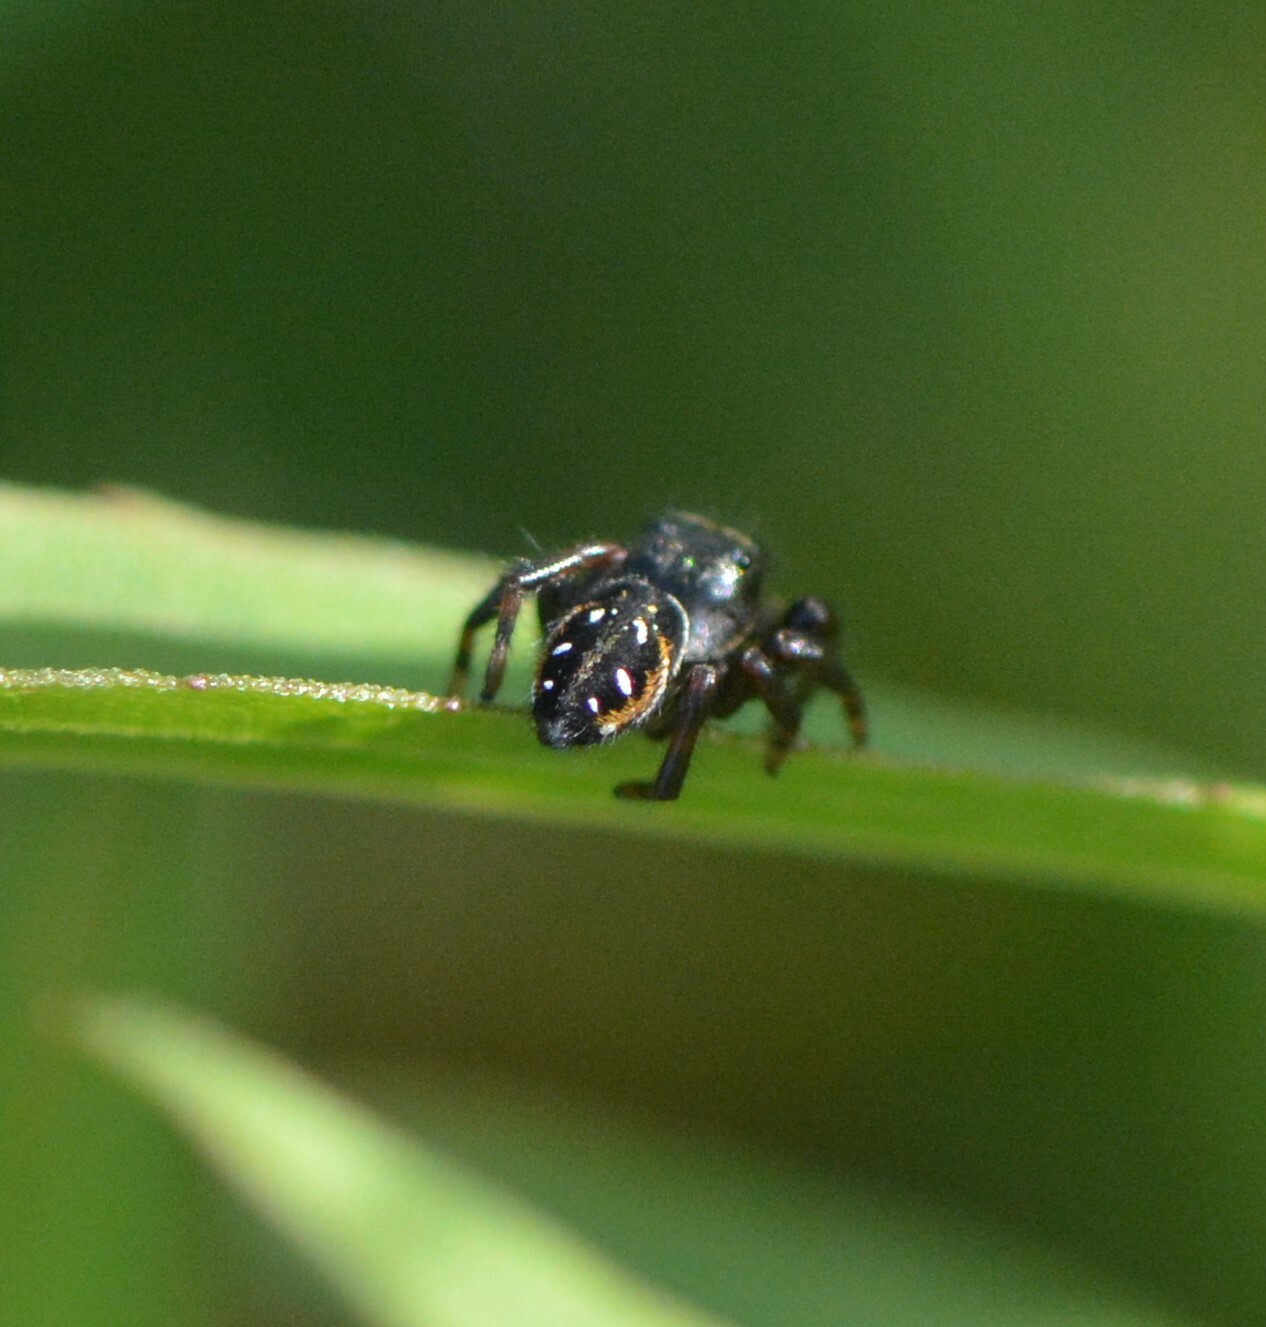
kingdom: Animalia
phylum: Arthropoda
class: Arachnida
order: Araneae
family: Salticidae
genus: Phidippus
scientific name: Phidippus clarus
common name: Brilliant jumping spider
